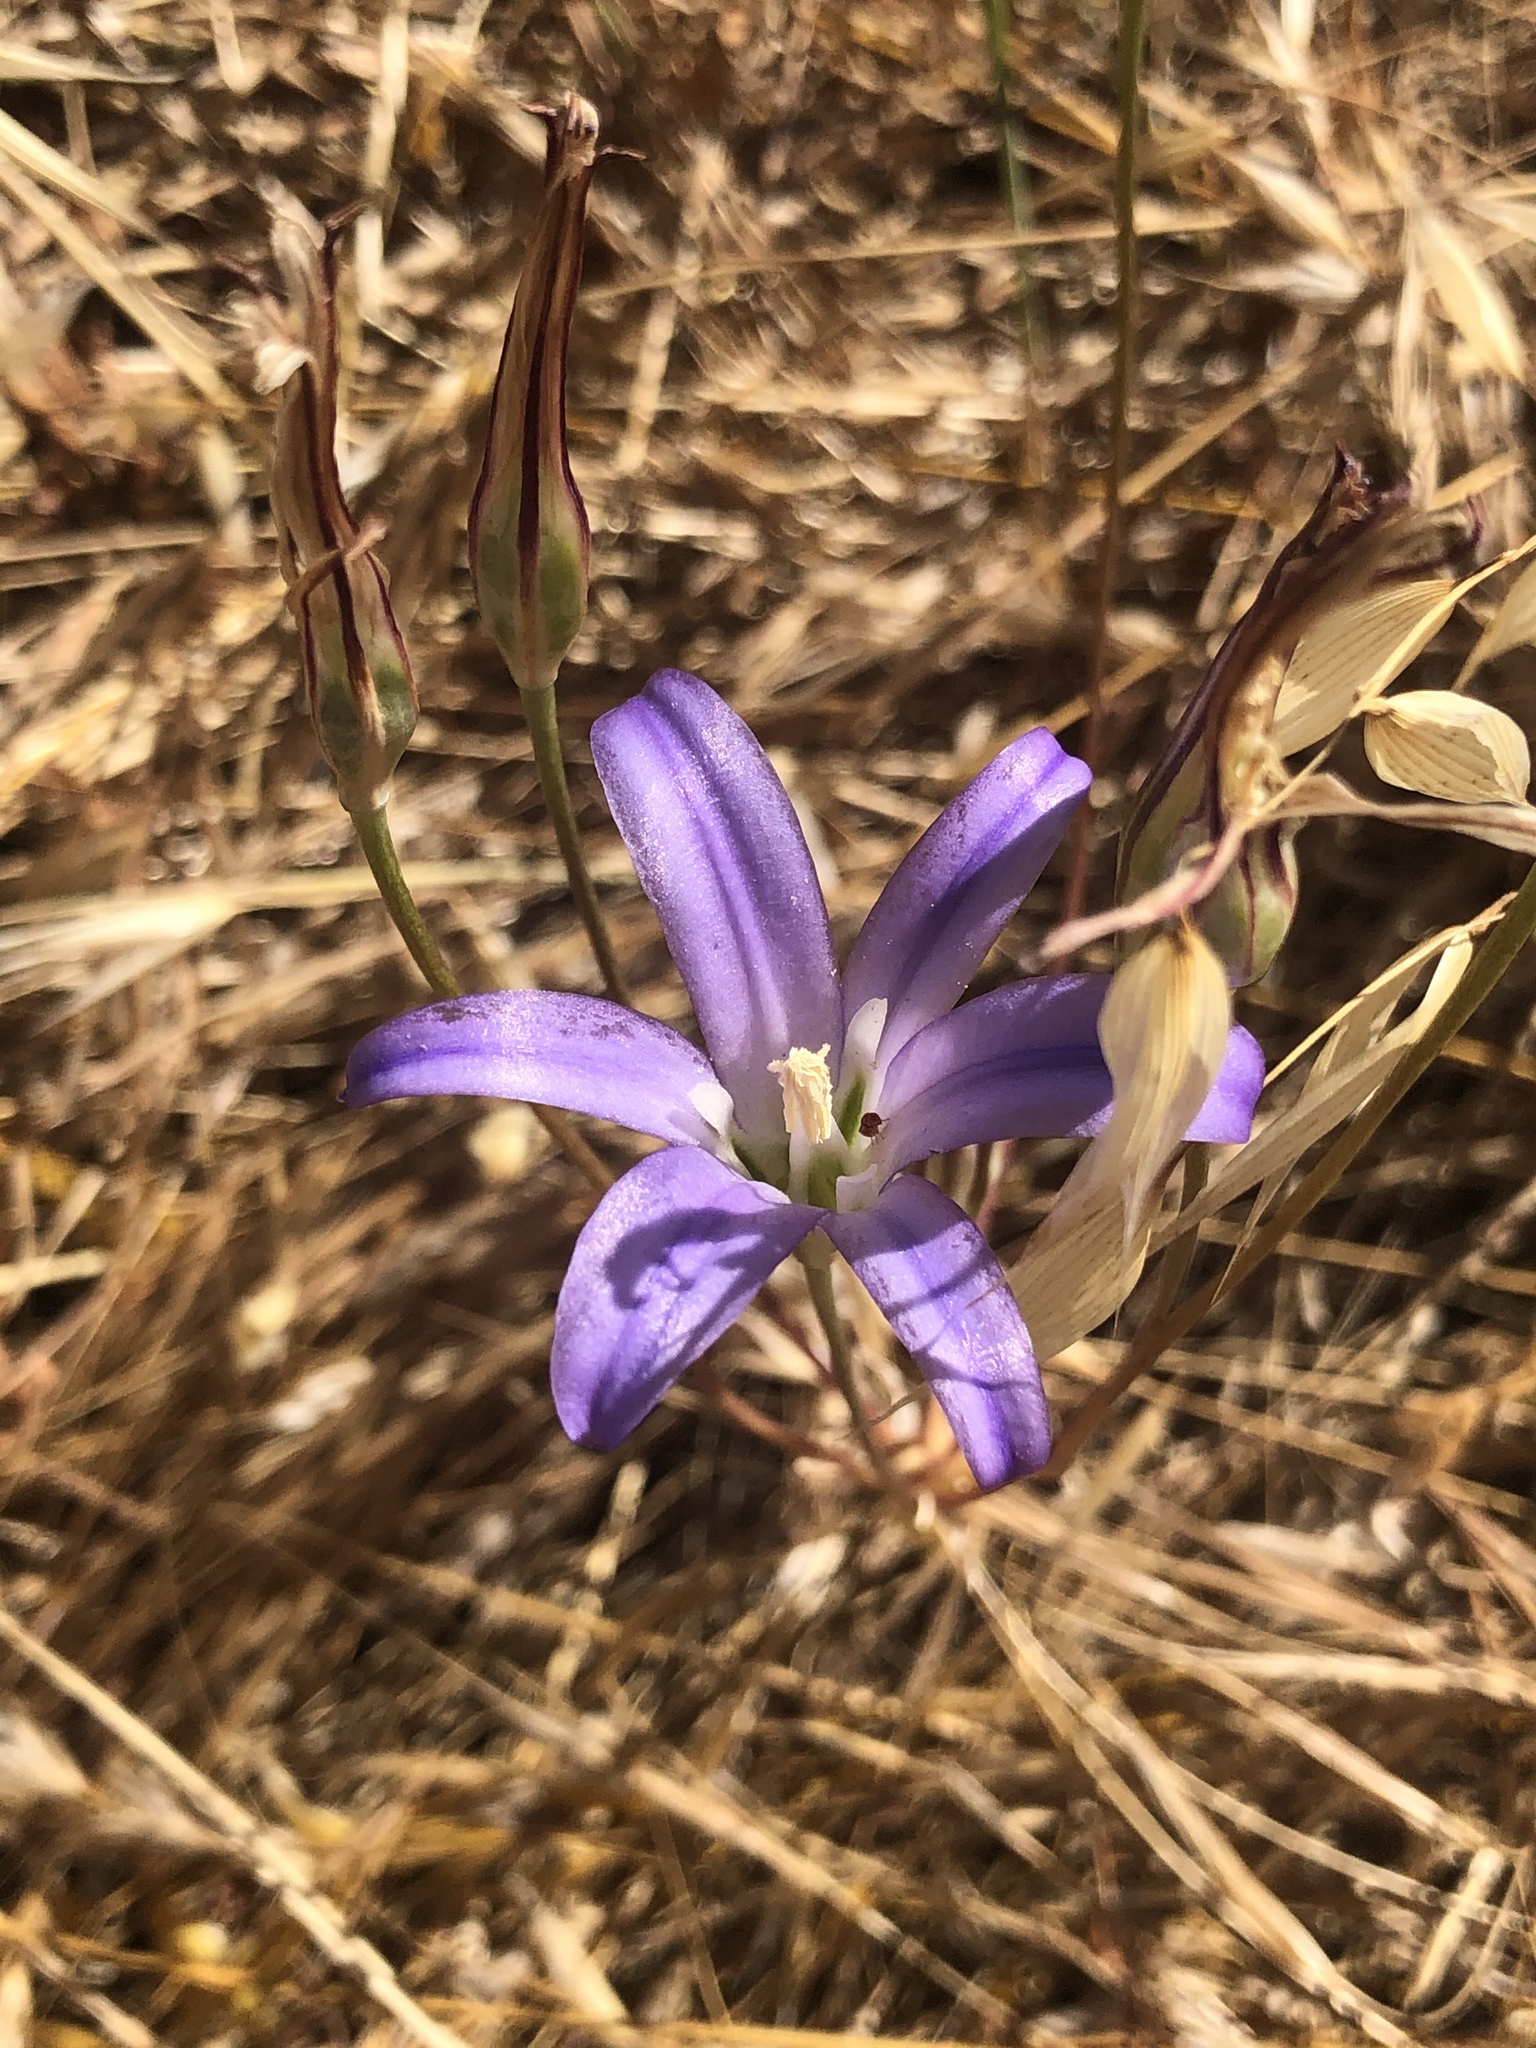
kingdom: Plantae
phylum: Tracheophyta
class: Liliopsida
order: Asparagales
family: Asparagaceae
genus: Brodiaea
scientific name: Brodiaea elegans
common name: Elegant cluster-lily
